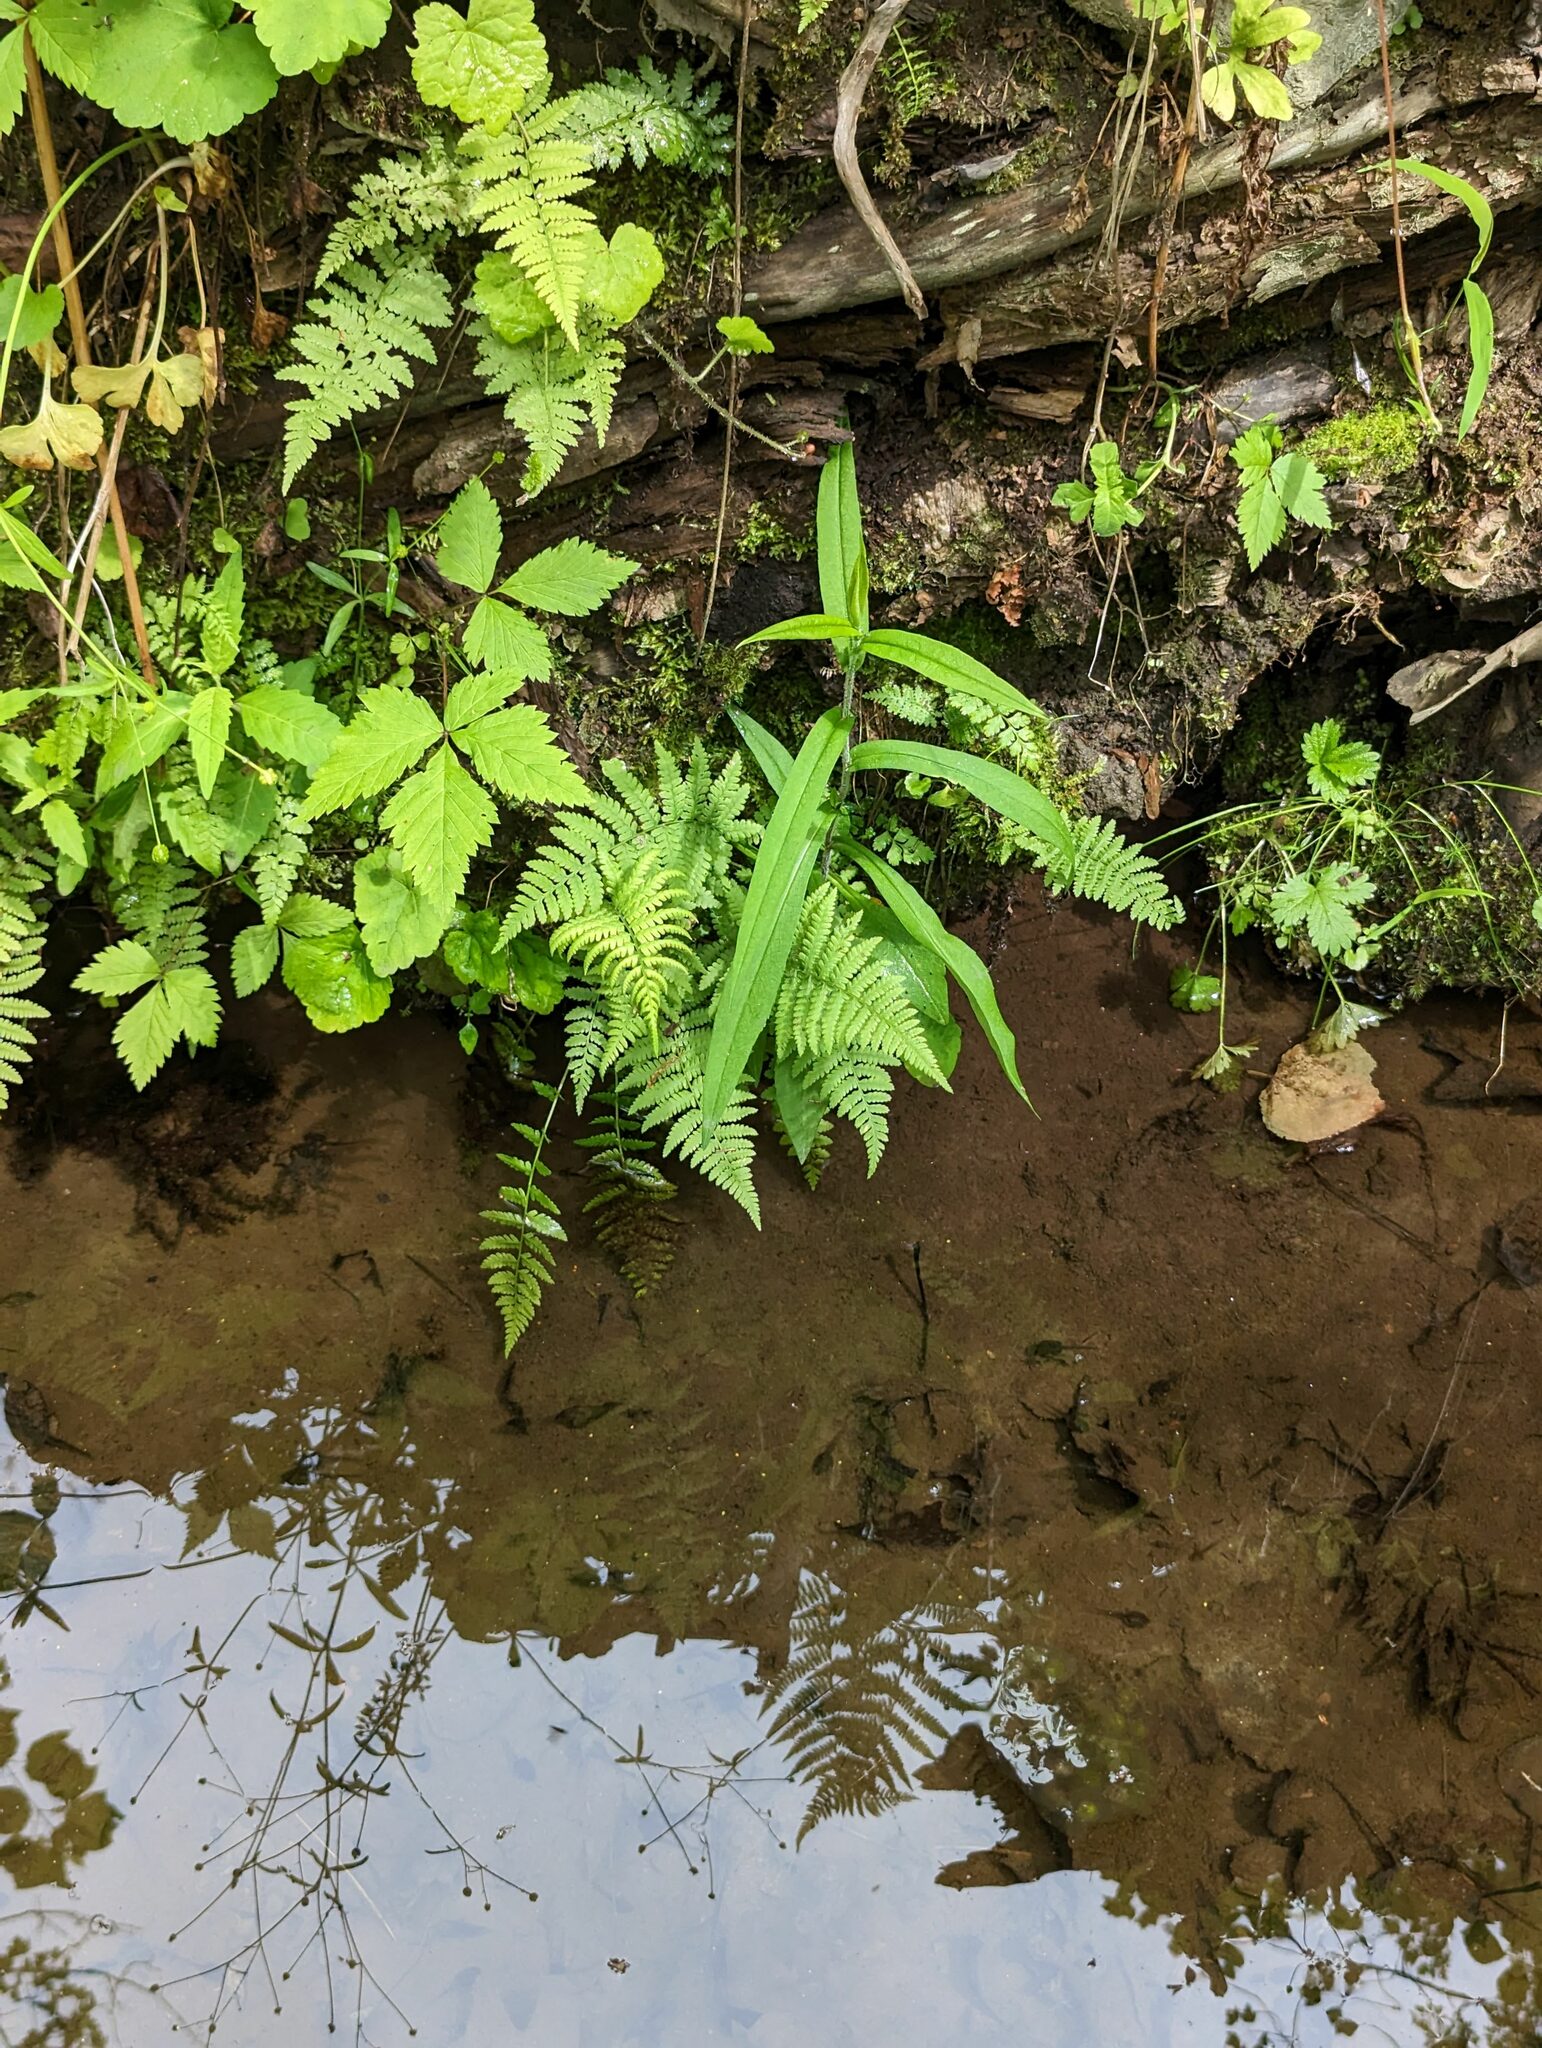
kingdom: Plantae
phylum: Tracheophyta
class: Polypodiopsida
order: Polypodiales
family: Athyriaceae
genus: Athyrium
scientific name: Athyrium angustum
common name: Northern lady fern
